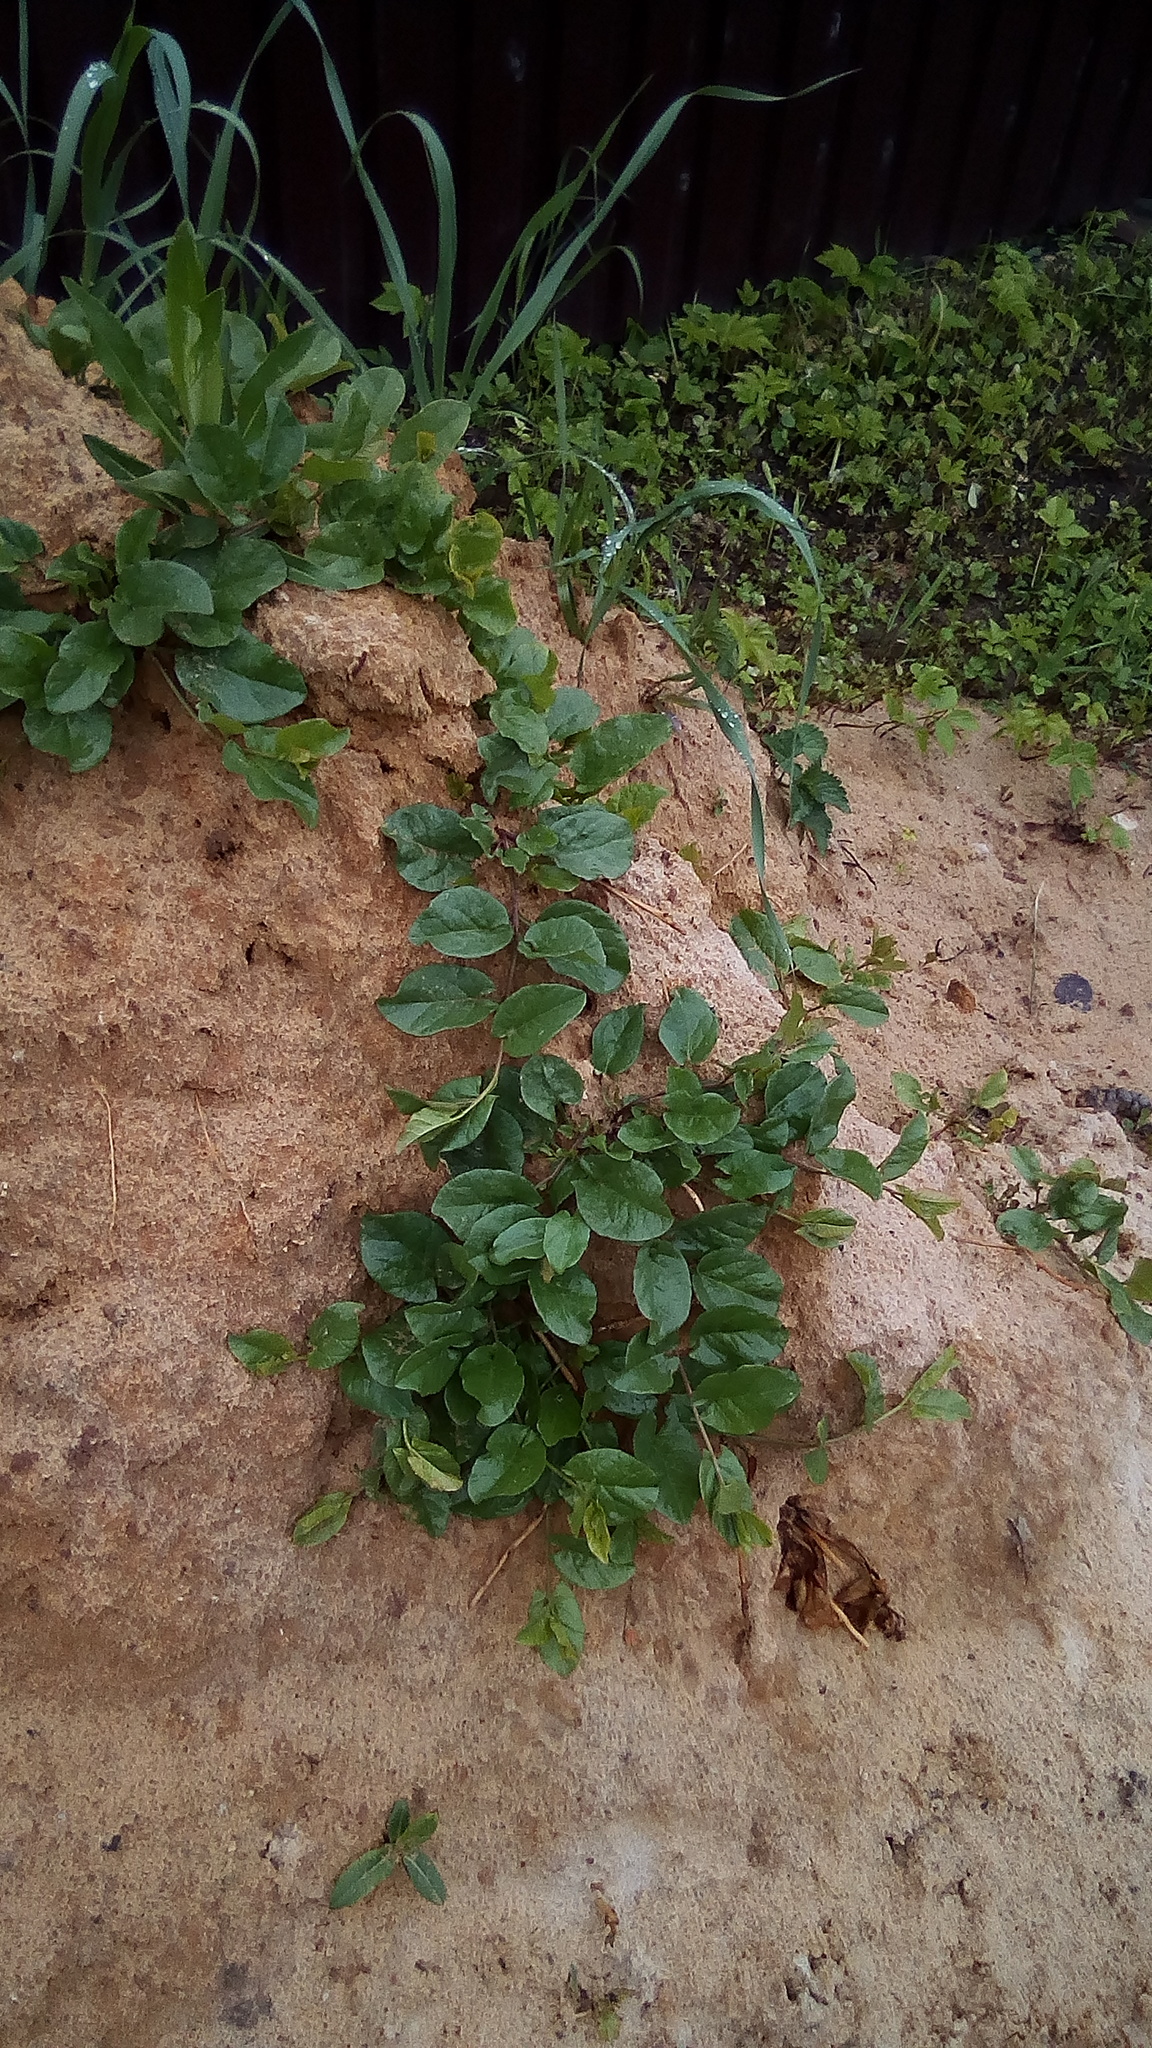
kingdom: Plantae
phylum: Tracheophyta
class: Magnoliopsida
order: Solanales
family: Convolvulaceae
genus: Convolvulus
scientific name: Convolvulus arvensis
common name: Field bindweed
